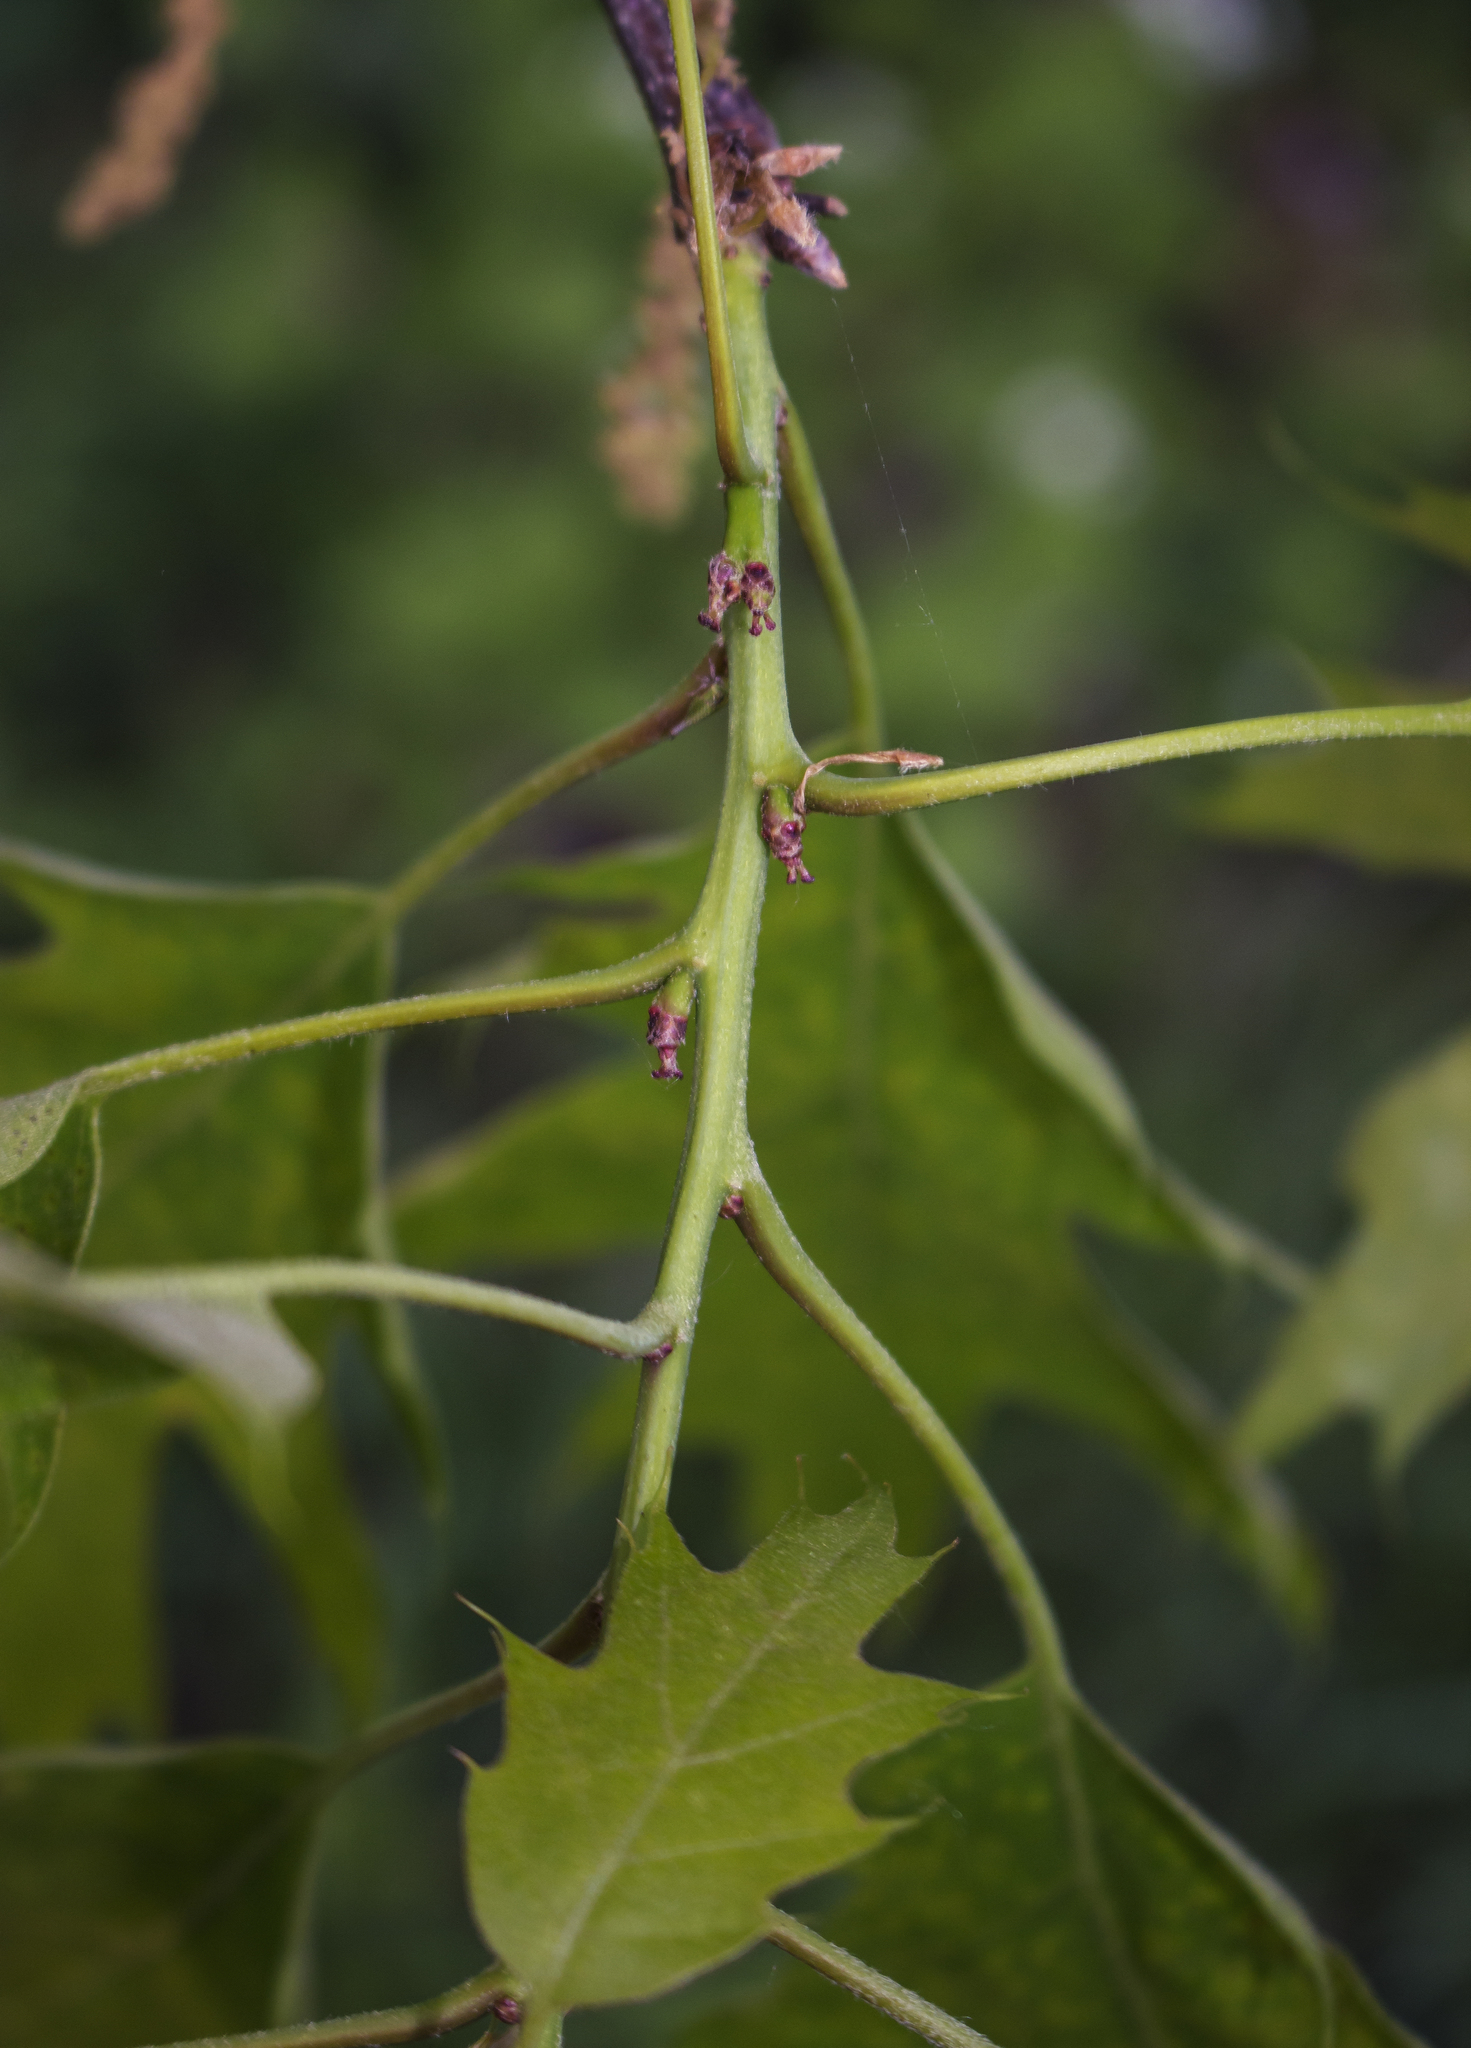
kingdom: Plantae
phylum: Tracheophyta
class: Magnoliopsida
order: Fagales
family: Fagaceae
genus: Quercus
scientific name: Quercus rubra
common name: Red oak
